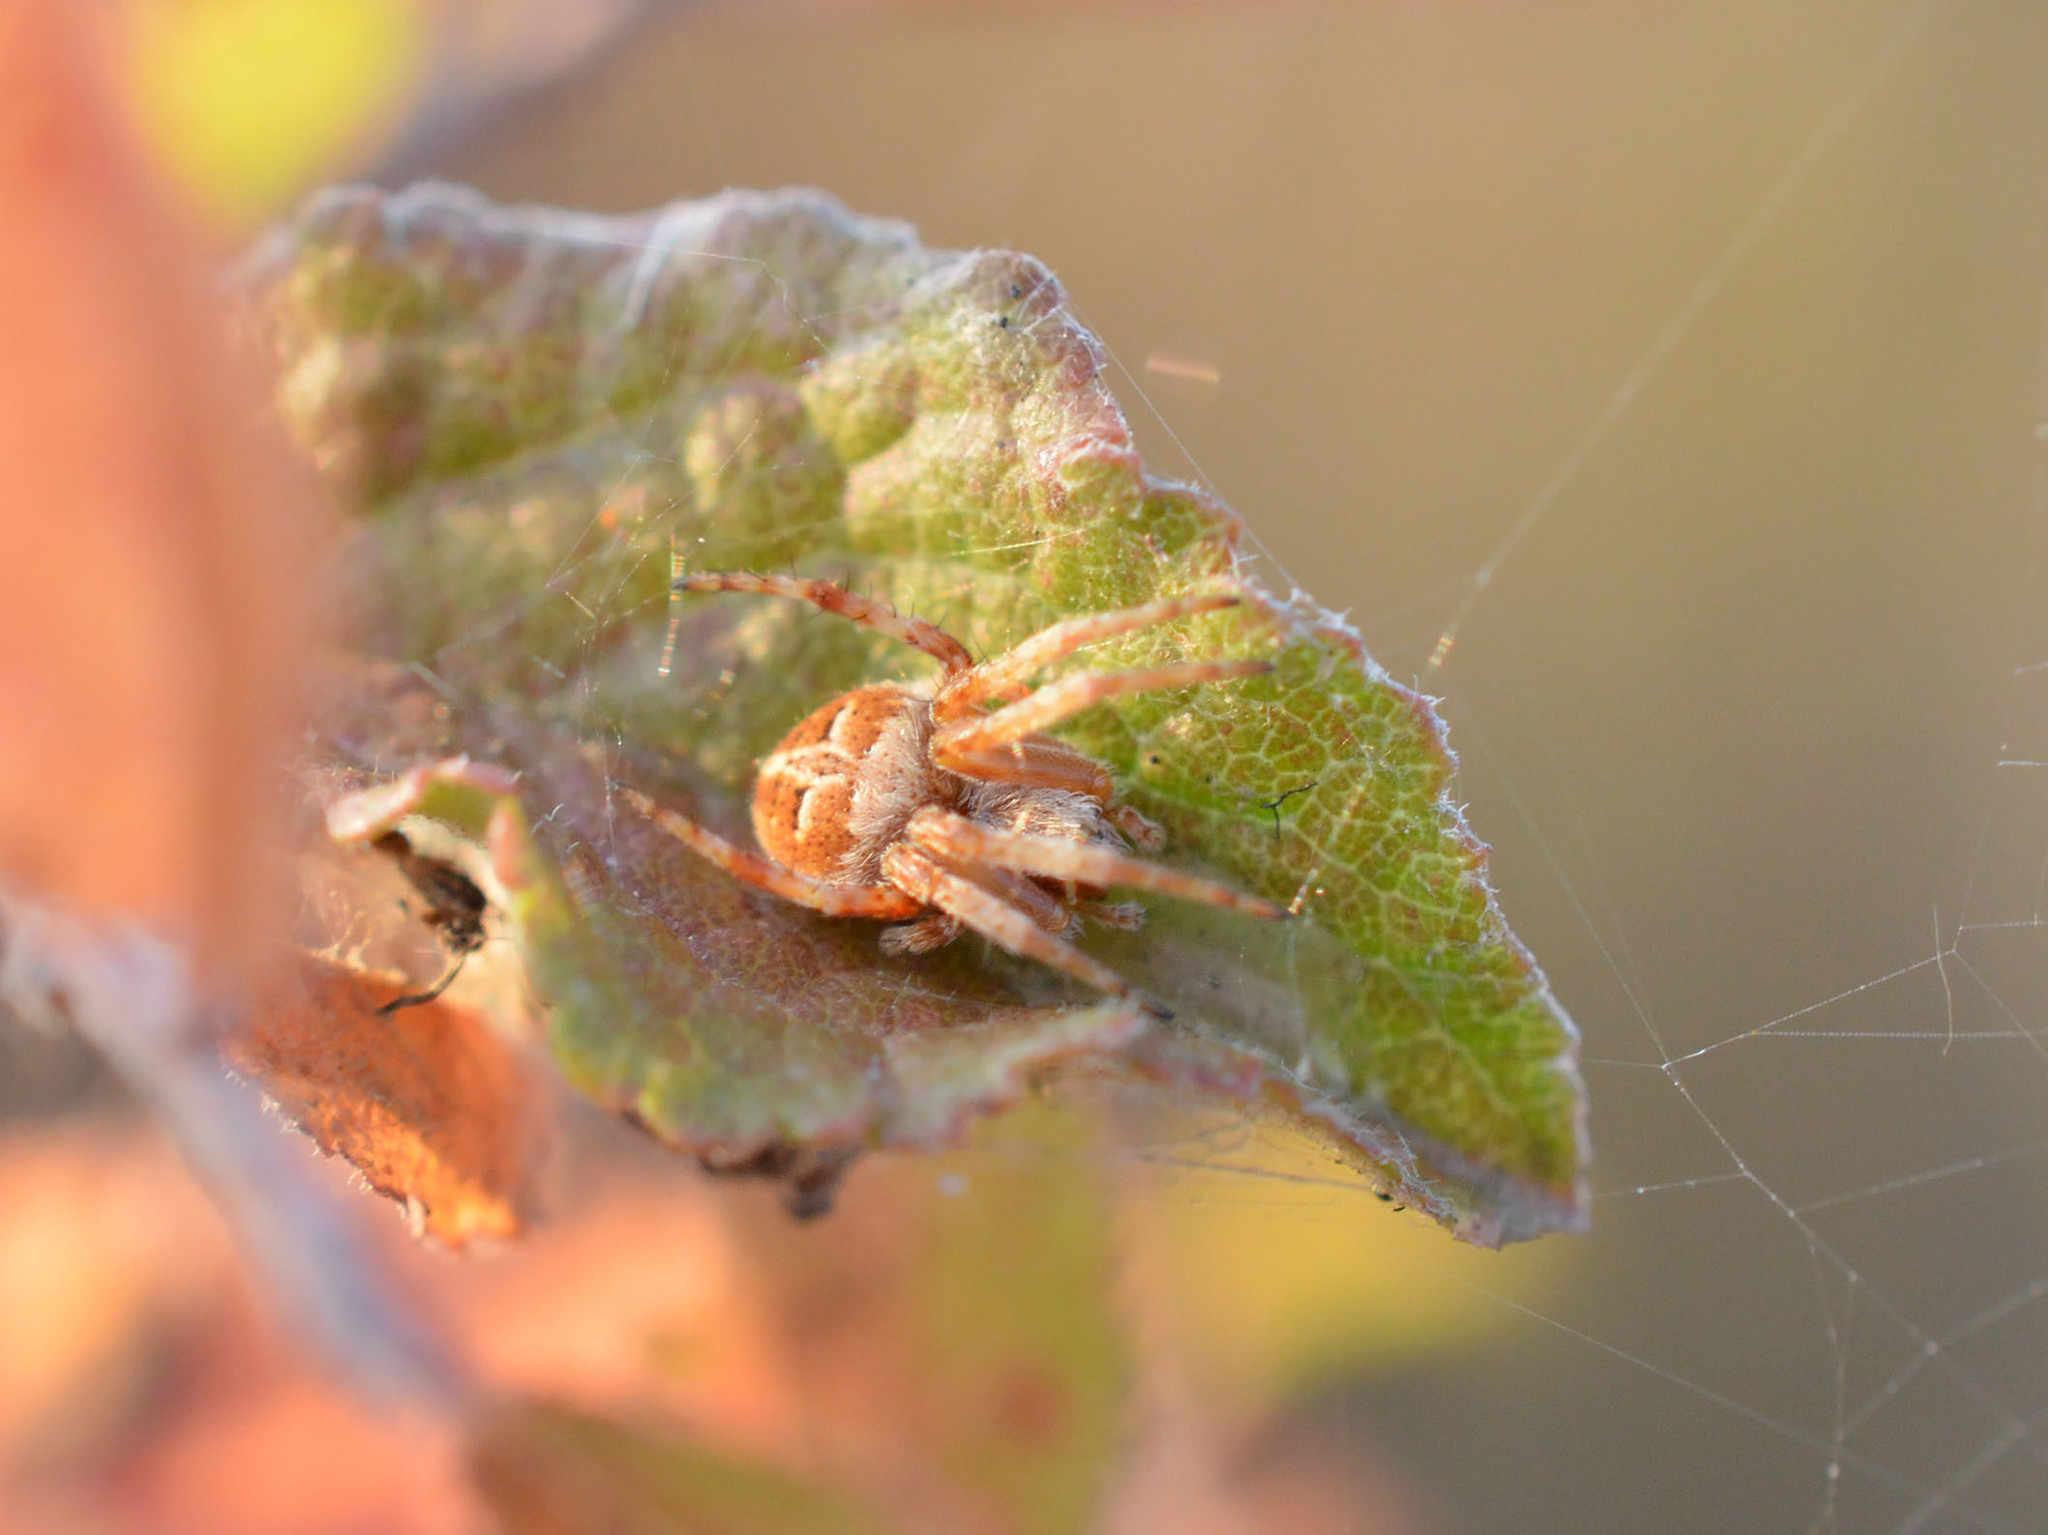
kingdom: Animalia
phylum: Arthropoda
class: Arachnida
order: Araneae
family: Araneidae
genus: Agalenatea
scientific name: Agalenatea redii
